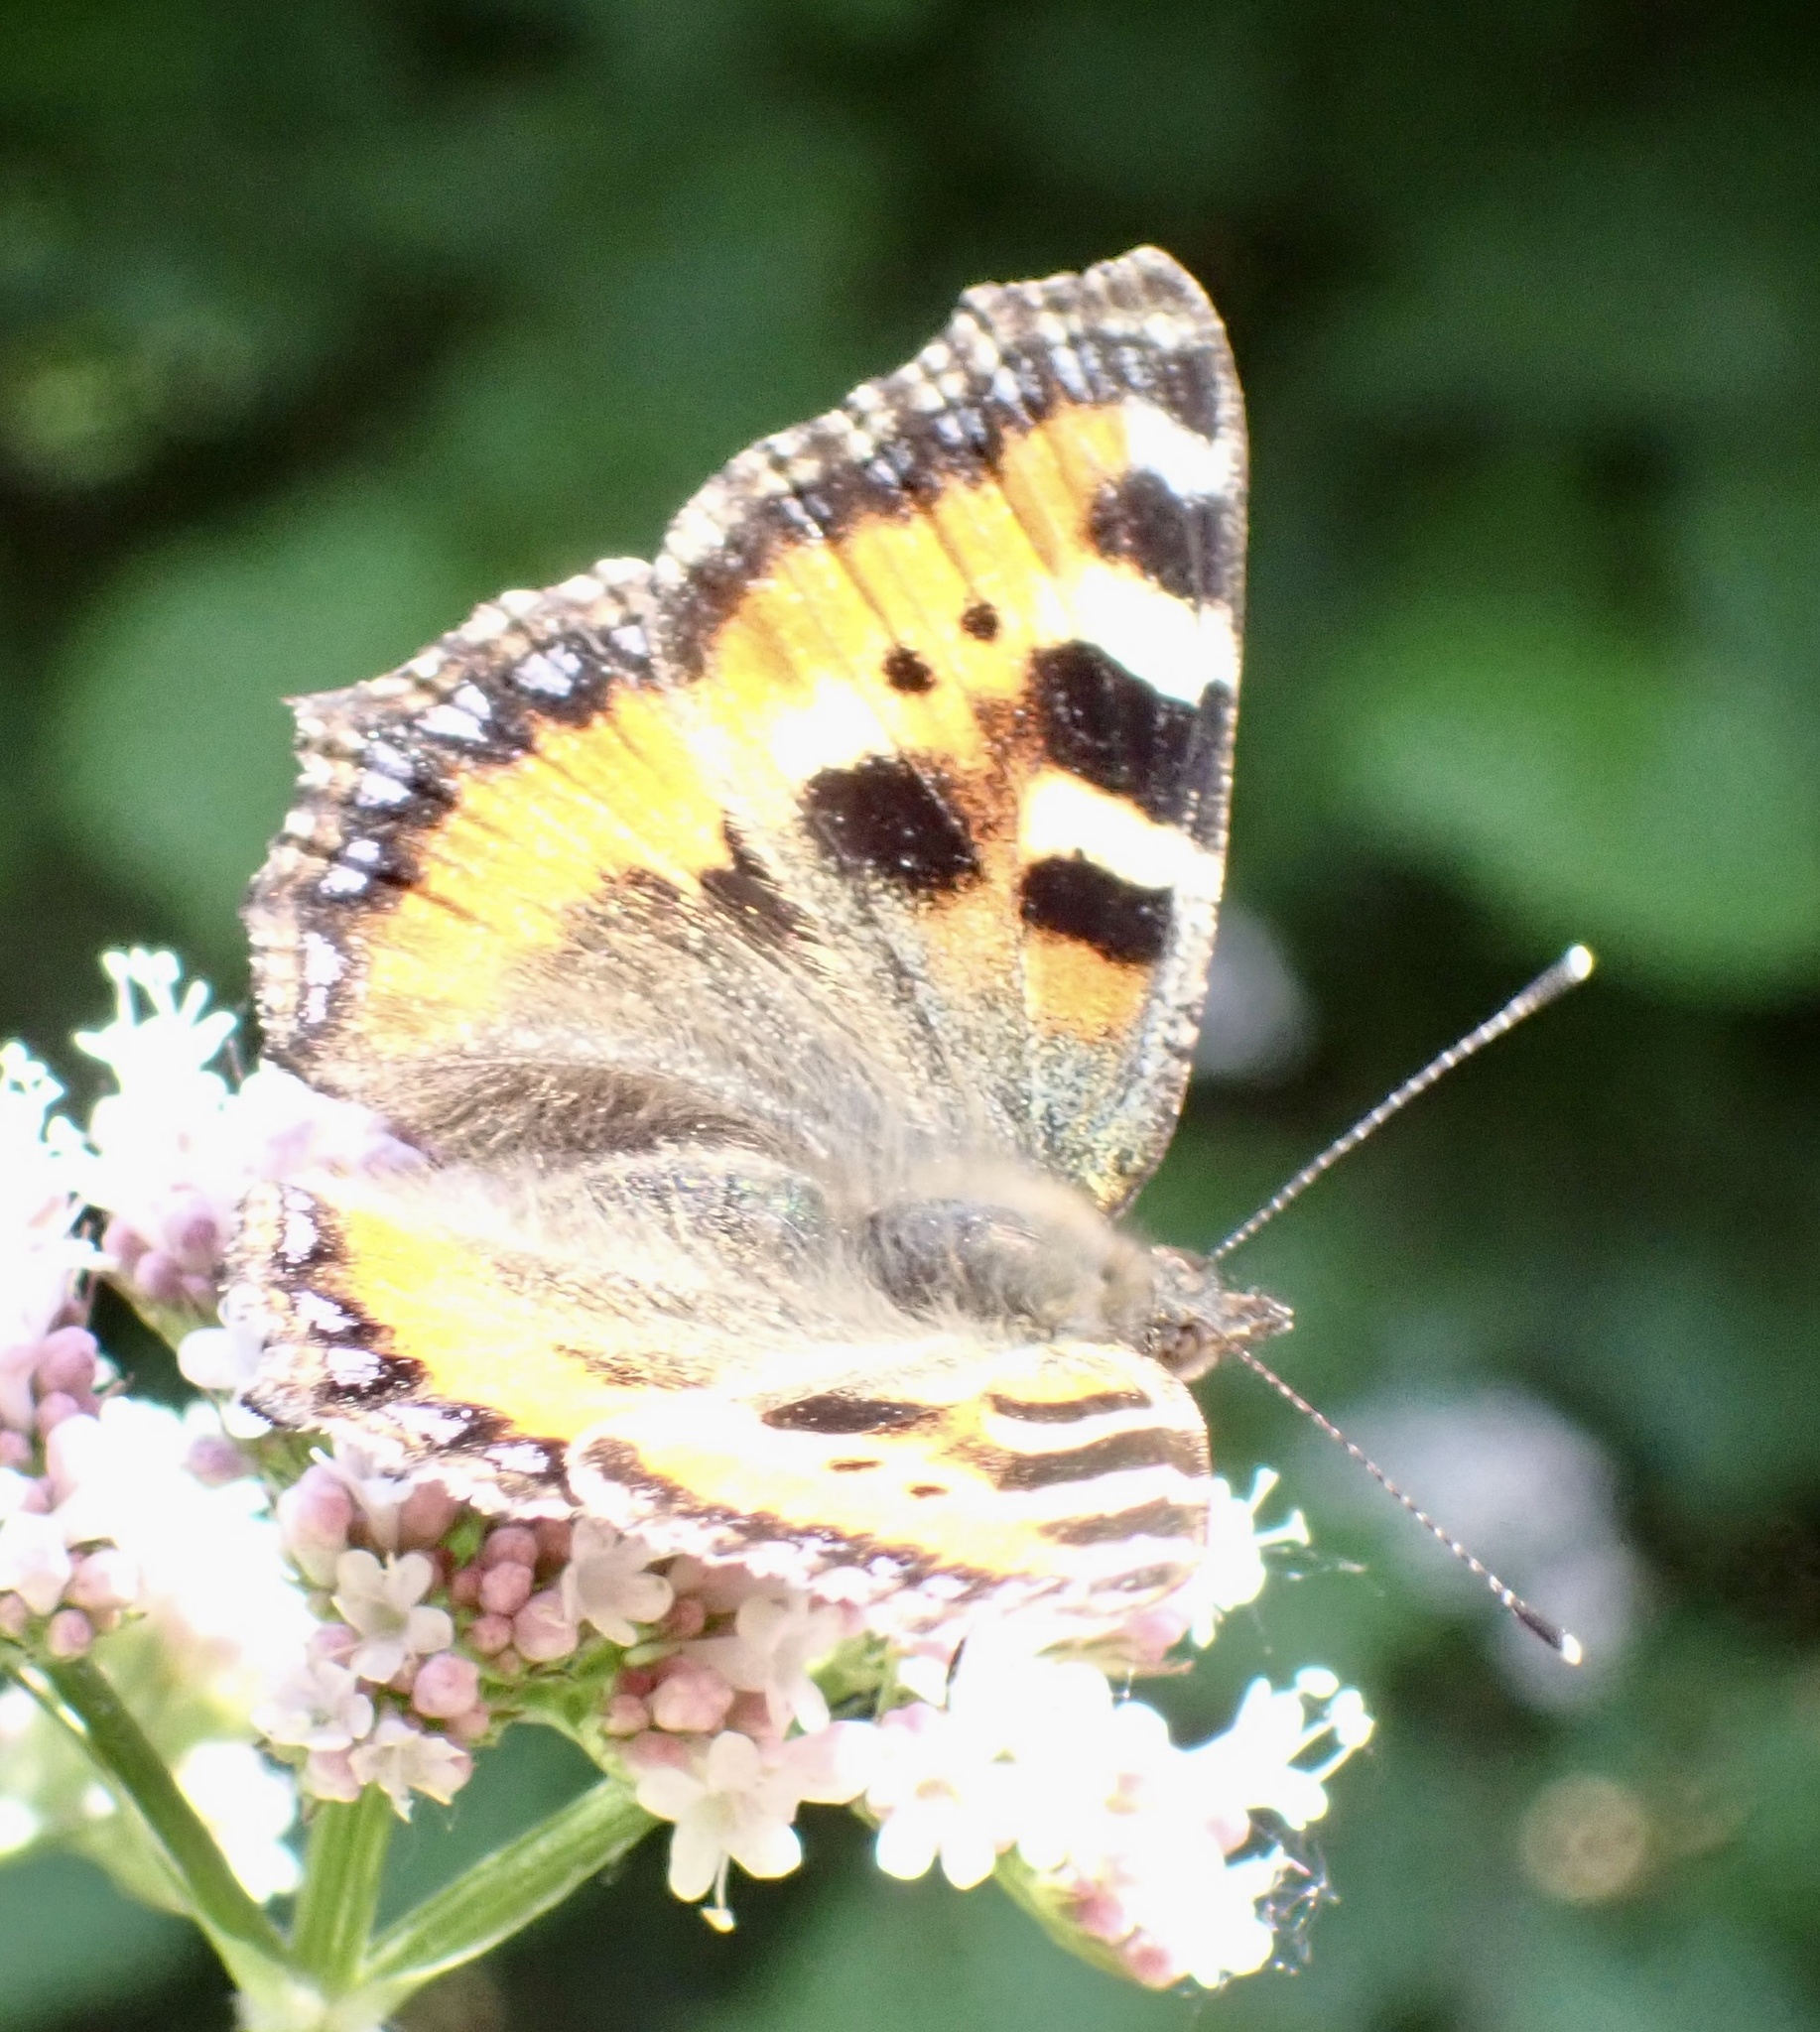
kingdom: Animalia
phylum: Arthropoda
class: Insecta
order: Lepidoptera
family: Nymphalidae
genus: Aglais
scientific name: Aglais urticae
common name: Small tortoiseshell
